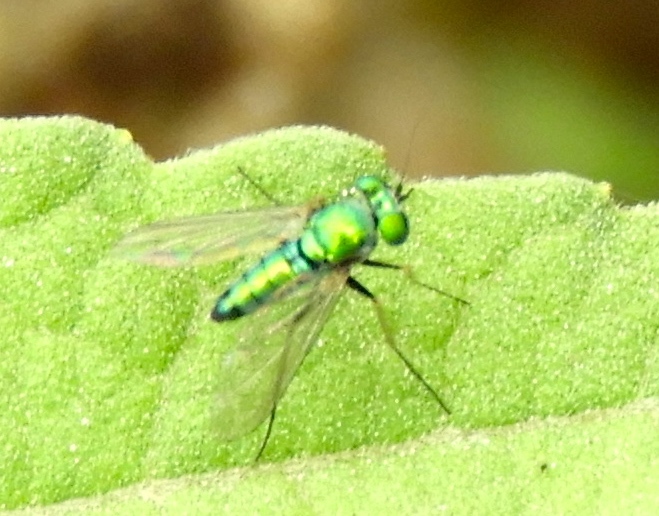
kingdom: Animalia
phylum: Arthropoda
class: Insecta
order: Diptera
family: Dolichopodidae
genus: Condylostylus
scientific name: Condylostylus
